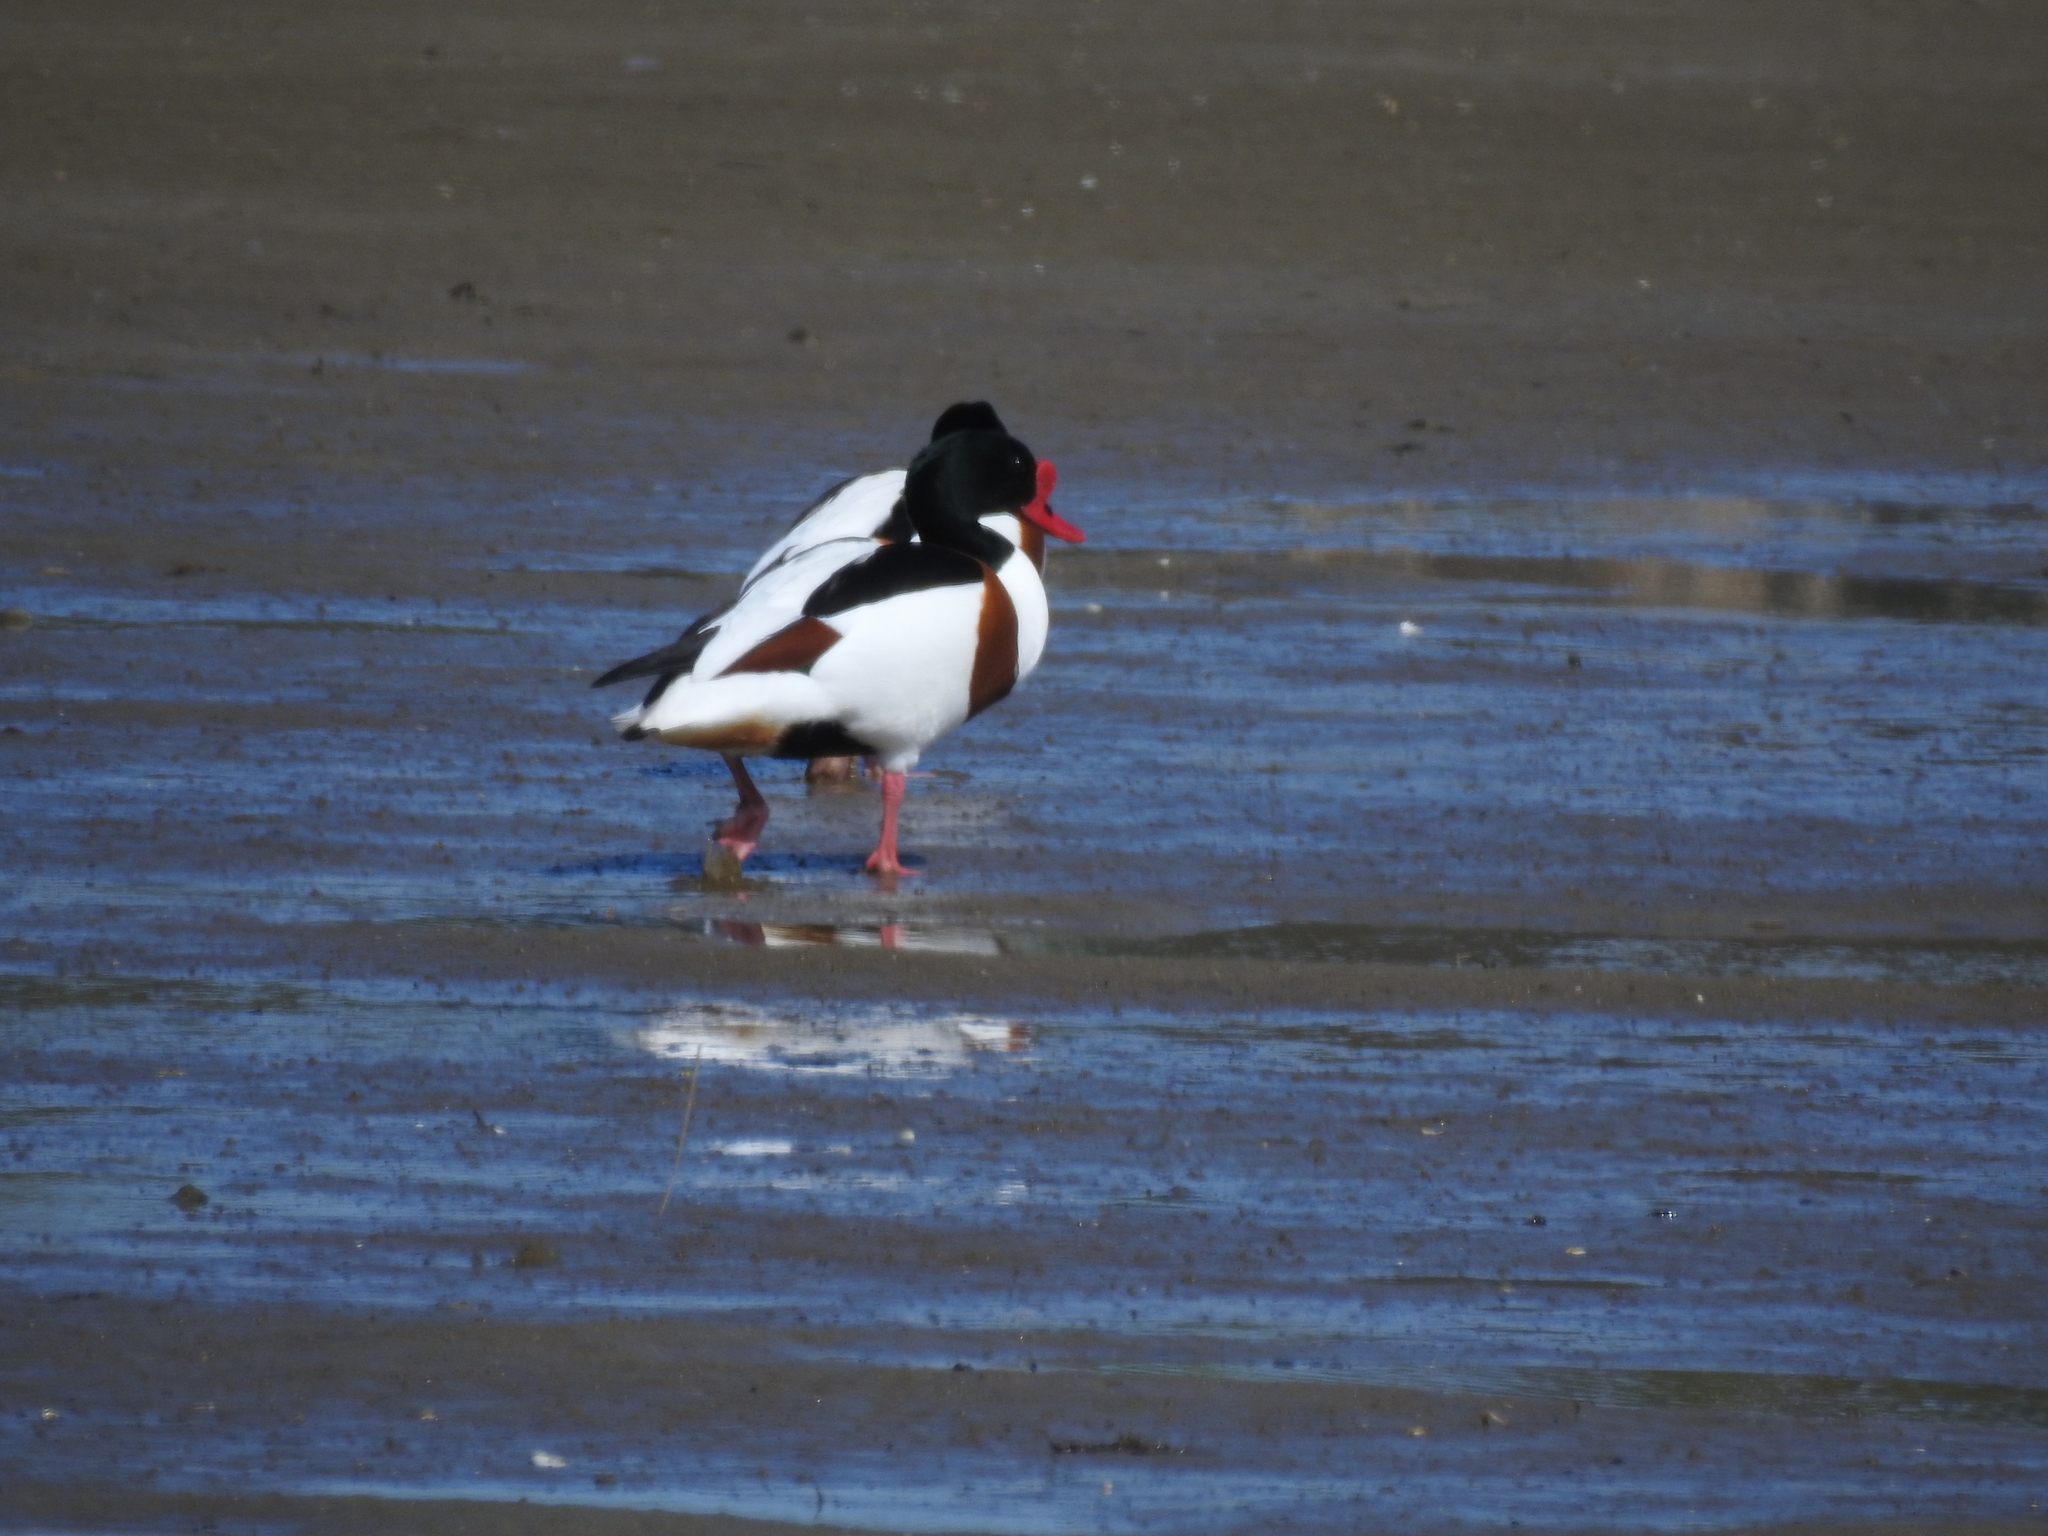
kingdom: Animalia
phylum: Chordata
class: Aves
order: Anseriformes
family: Anatidae
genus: Tadorna
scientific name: Tadorna tadorna
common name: Common shelduck
